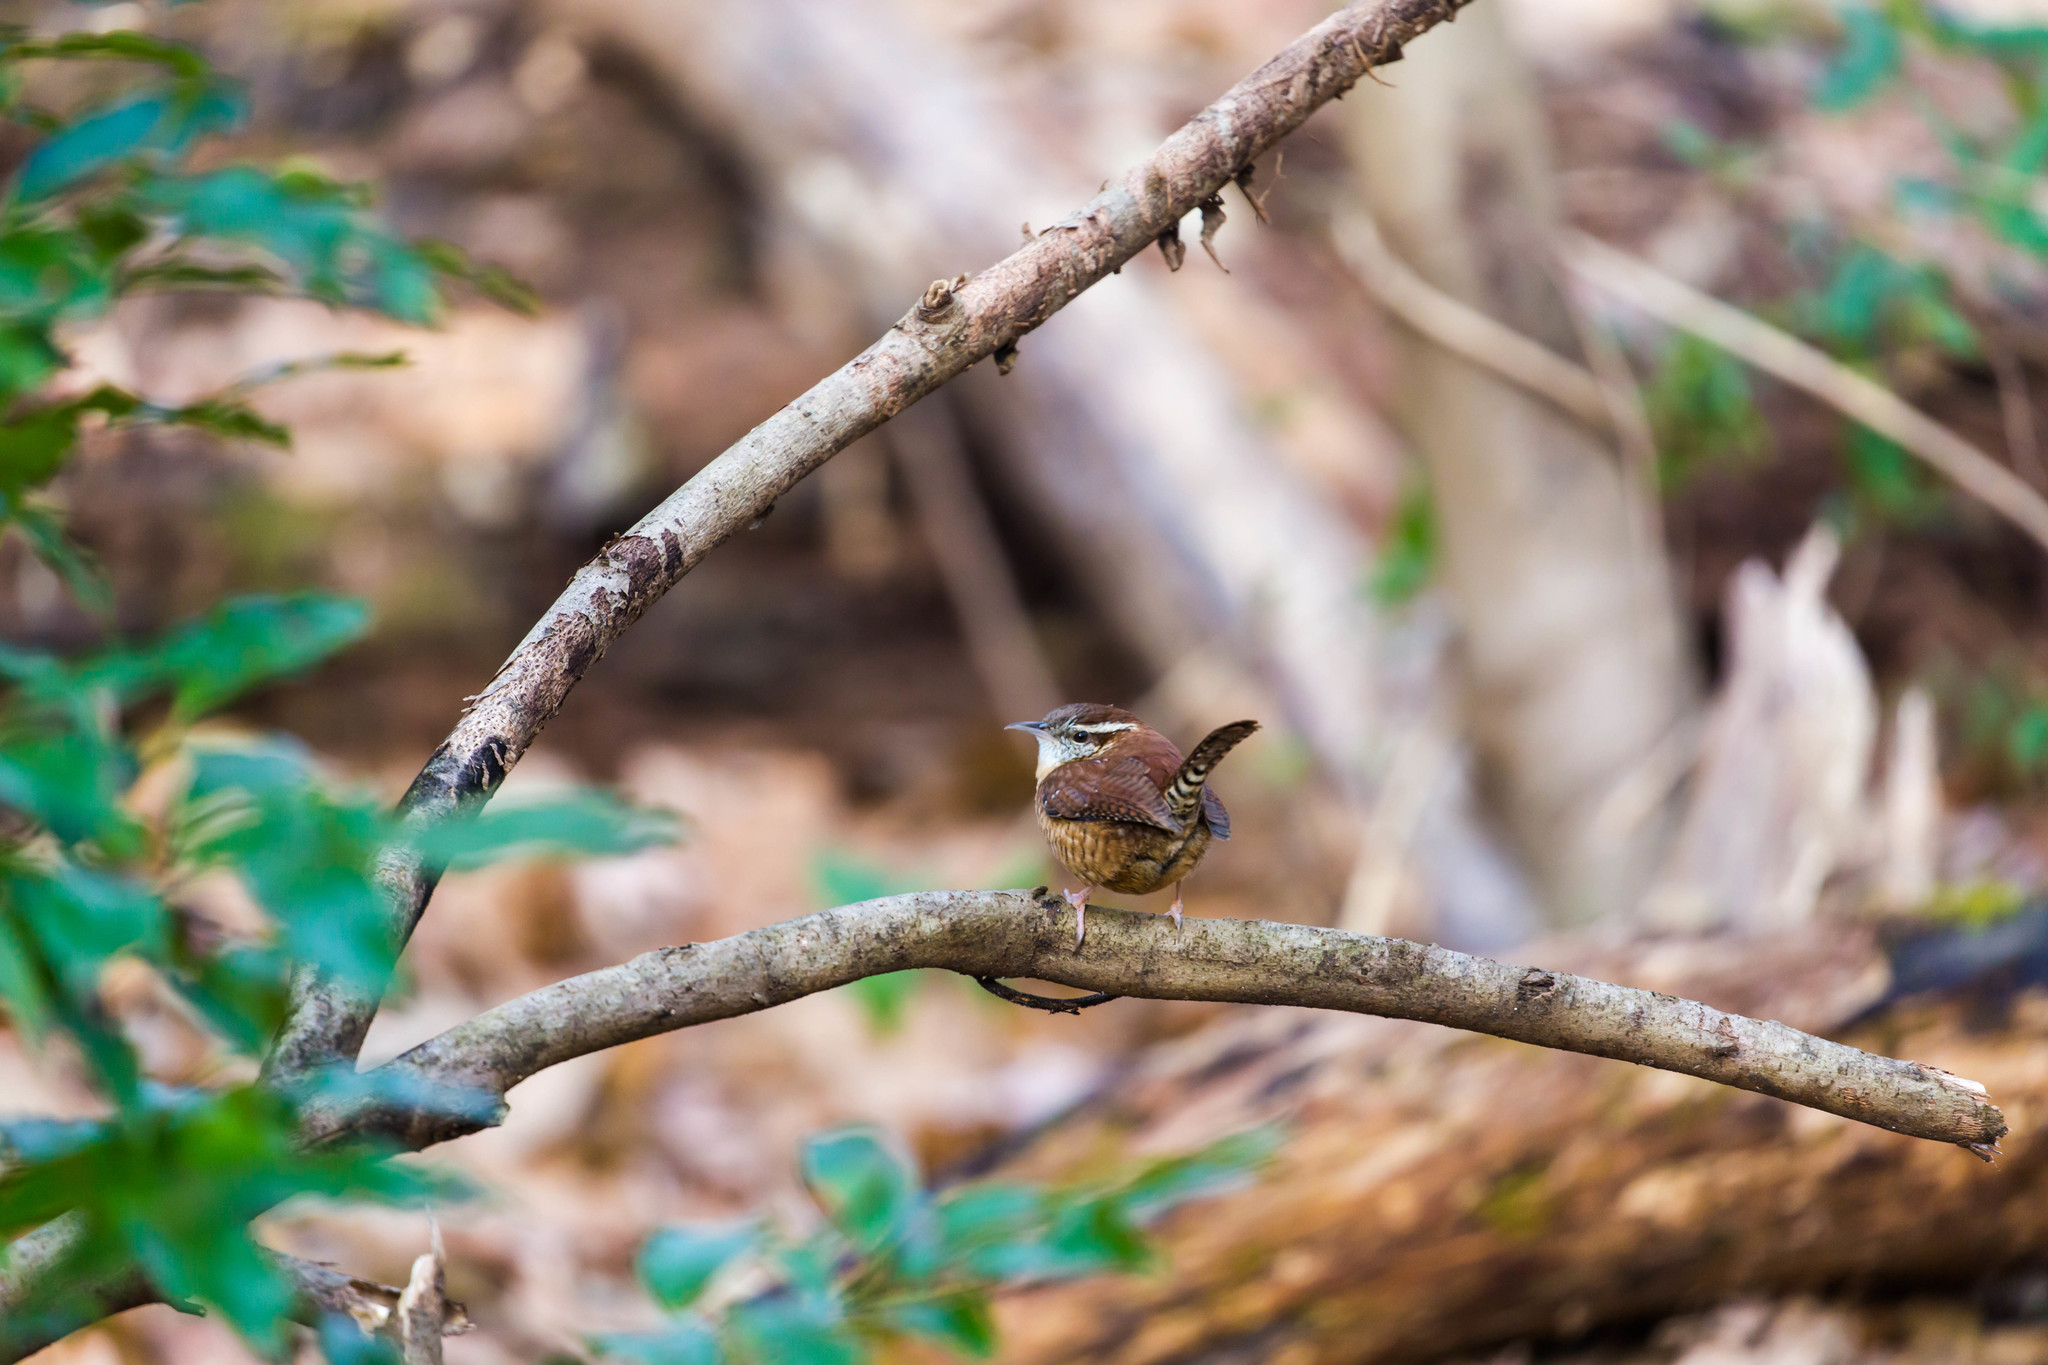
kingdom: Animalia
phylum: Chordata
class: Aves
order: Passeriformes
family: Troglodytidae
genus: Thryothorus
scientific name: Thryothorus ludovicianus
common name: Carolina wren
